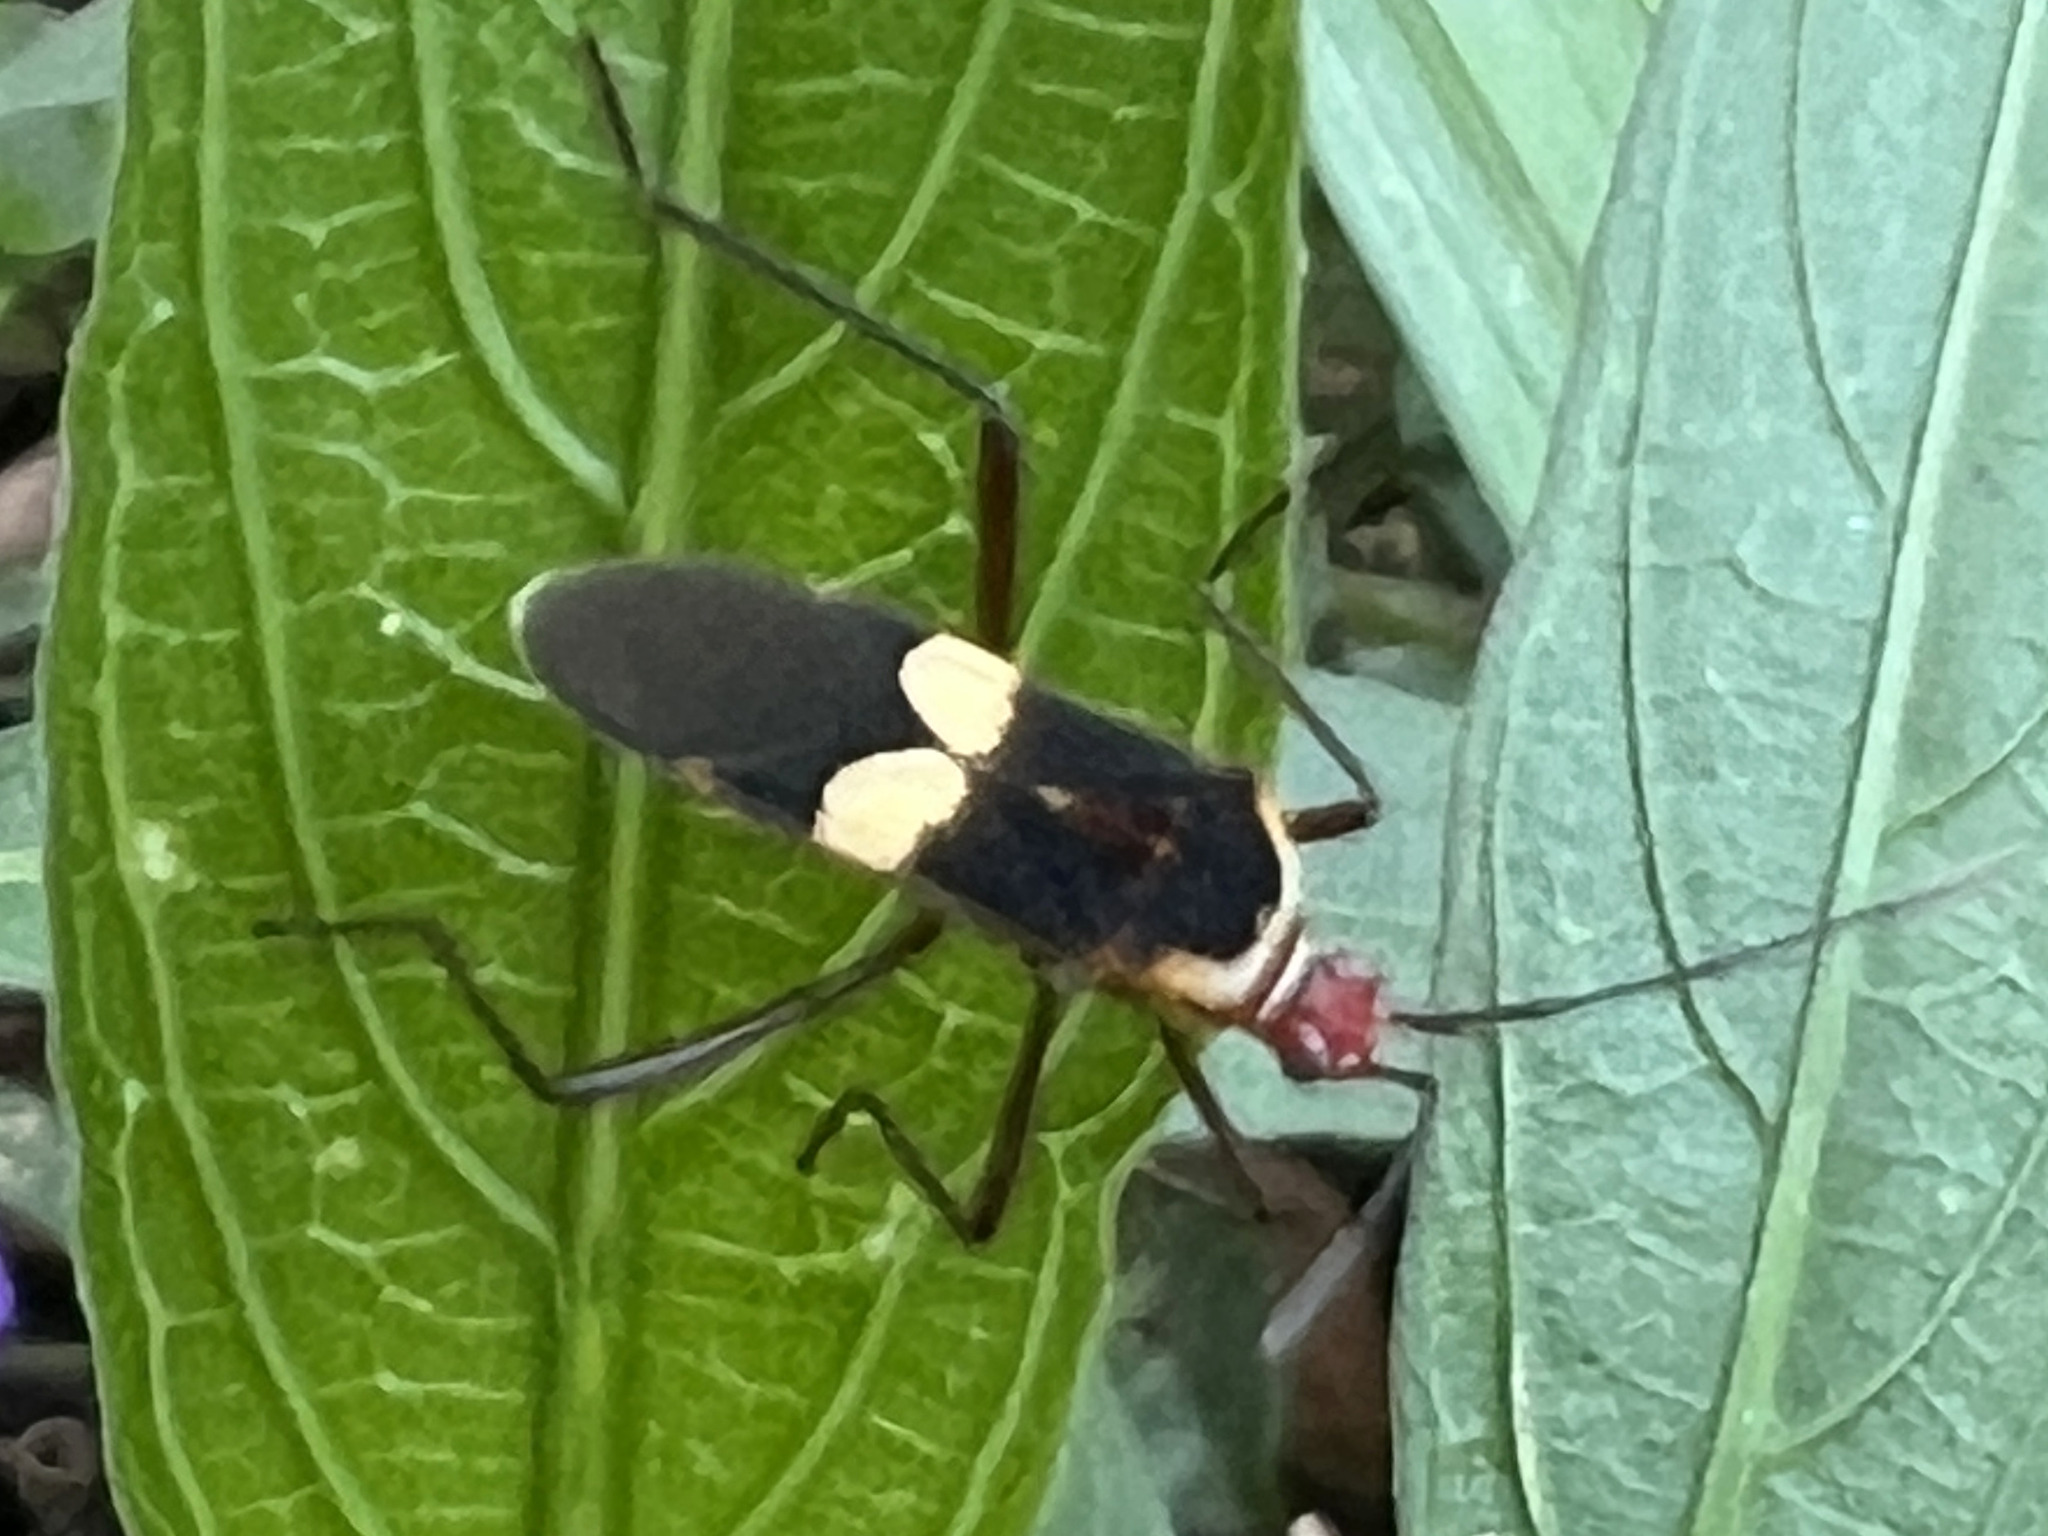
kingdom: Animalia
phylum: Arthropoda
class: Insecta
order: Hemiptera
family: Coreidae
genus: Hypselonotus
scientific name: Hypselonotus interruptus
